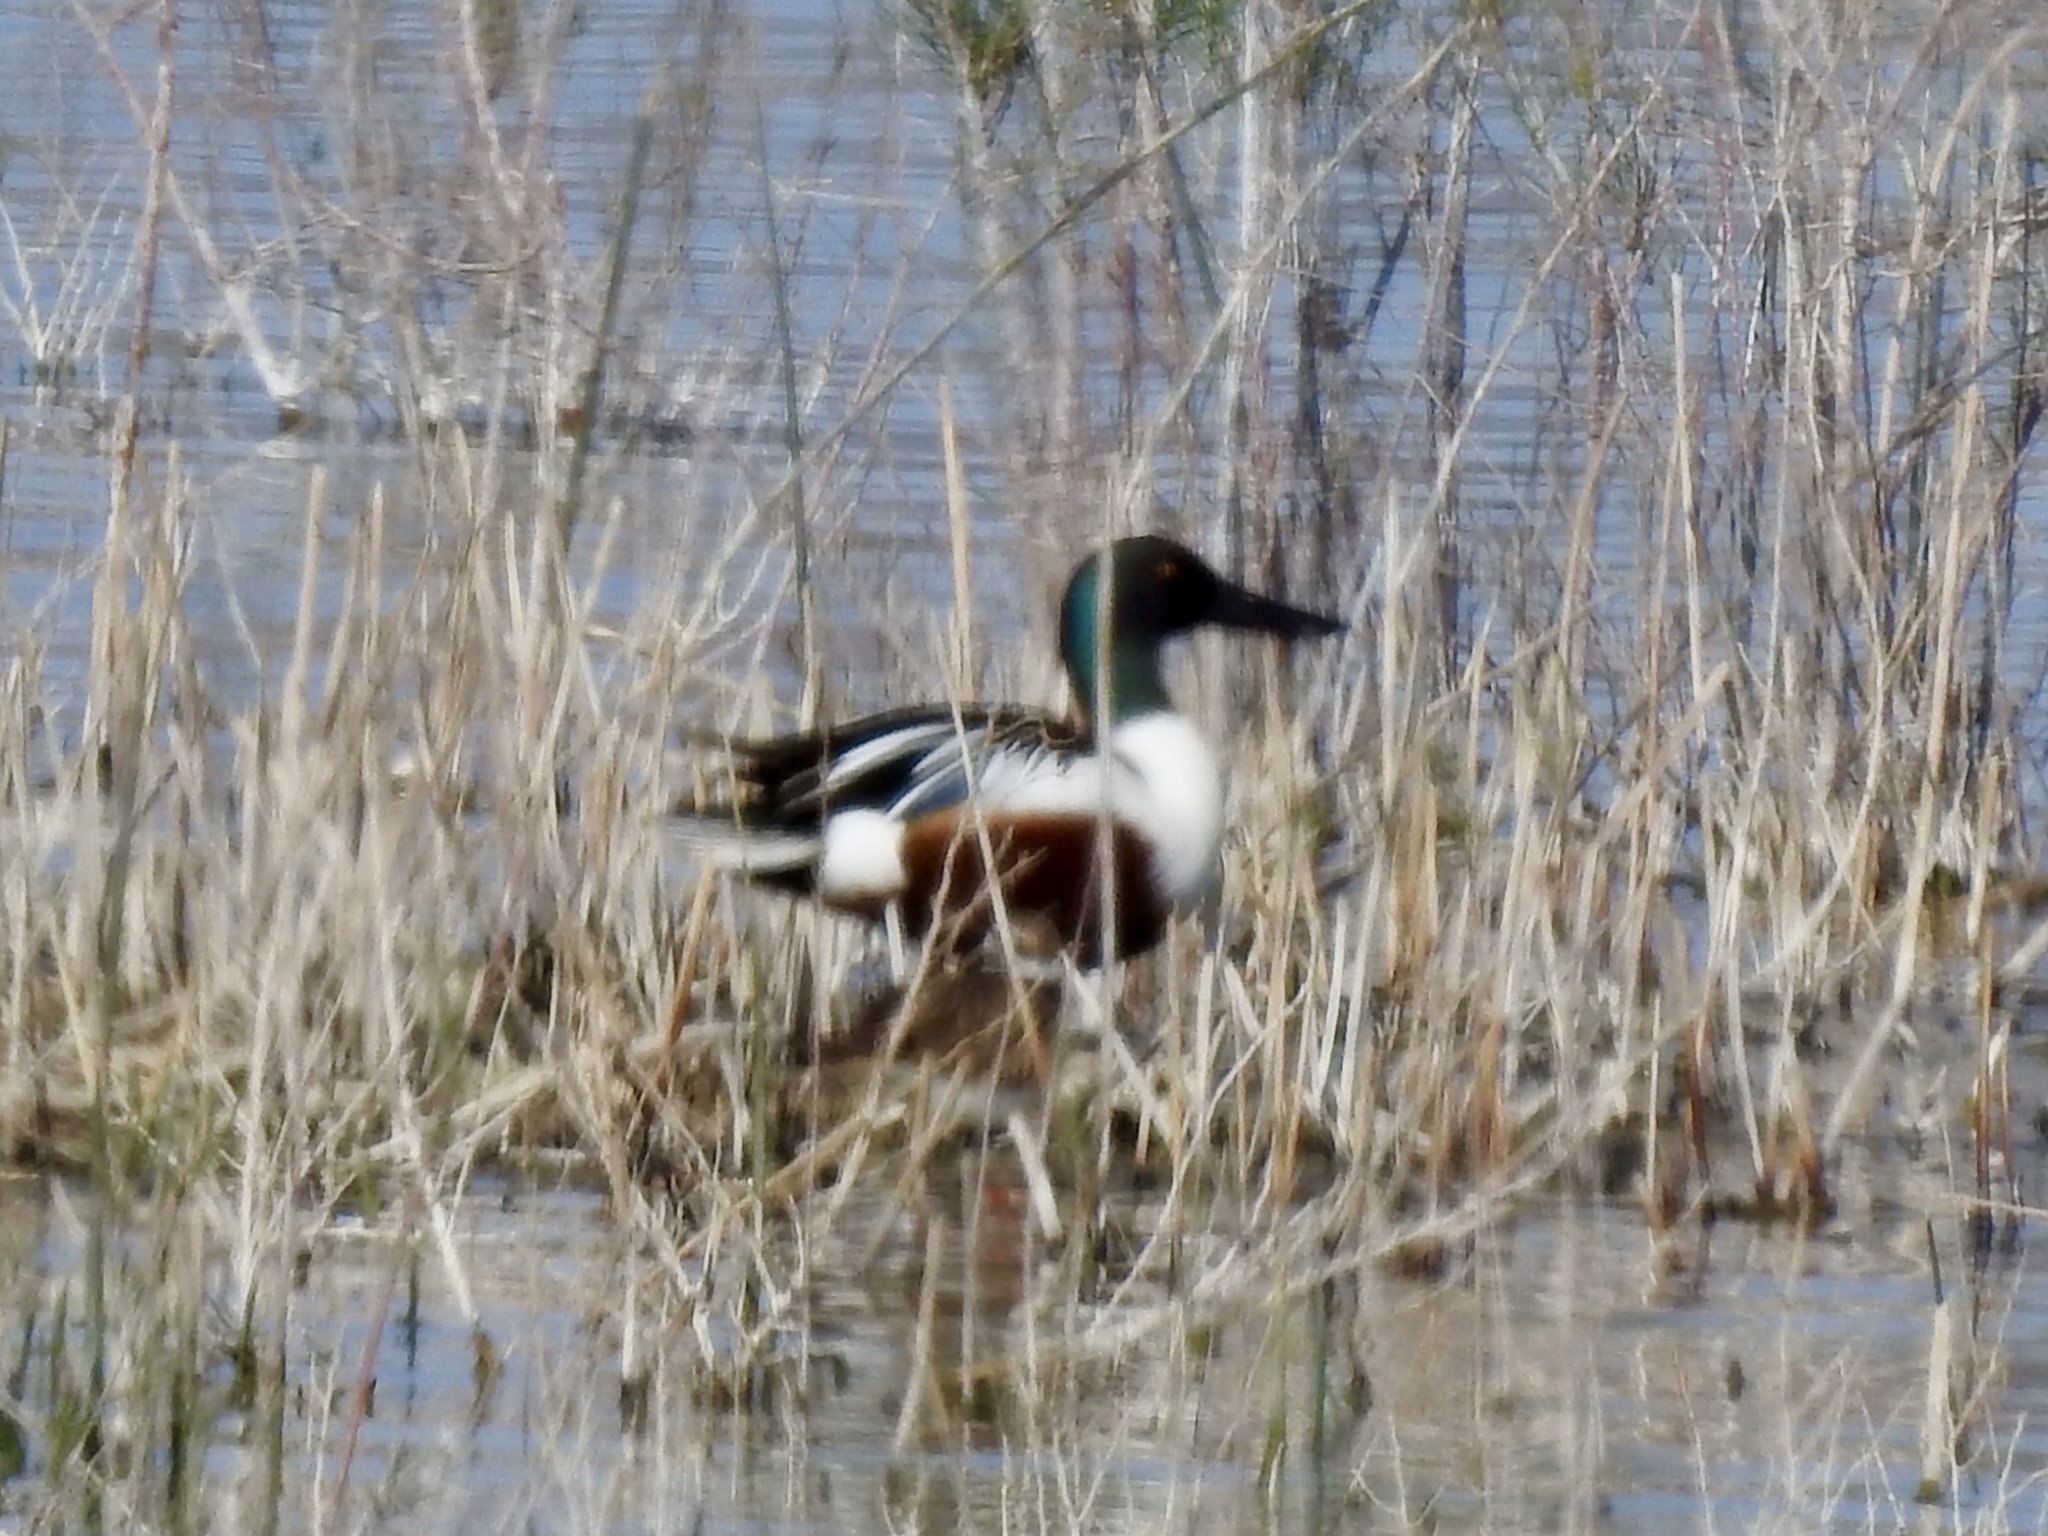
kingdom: Animalia
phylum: Chordata
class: Aves
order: Anseriformes
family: Anatidae
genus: Spatula
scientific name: Spatula clypeata
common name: Northern shoveler
